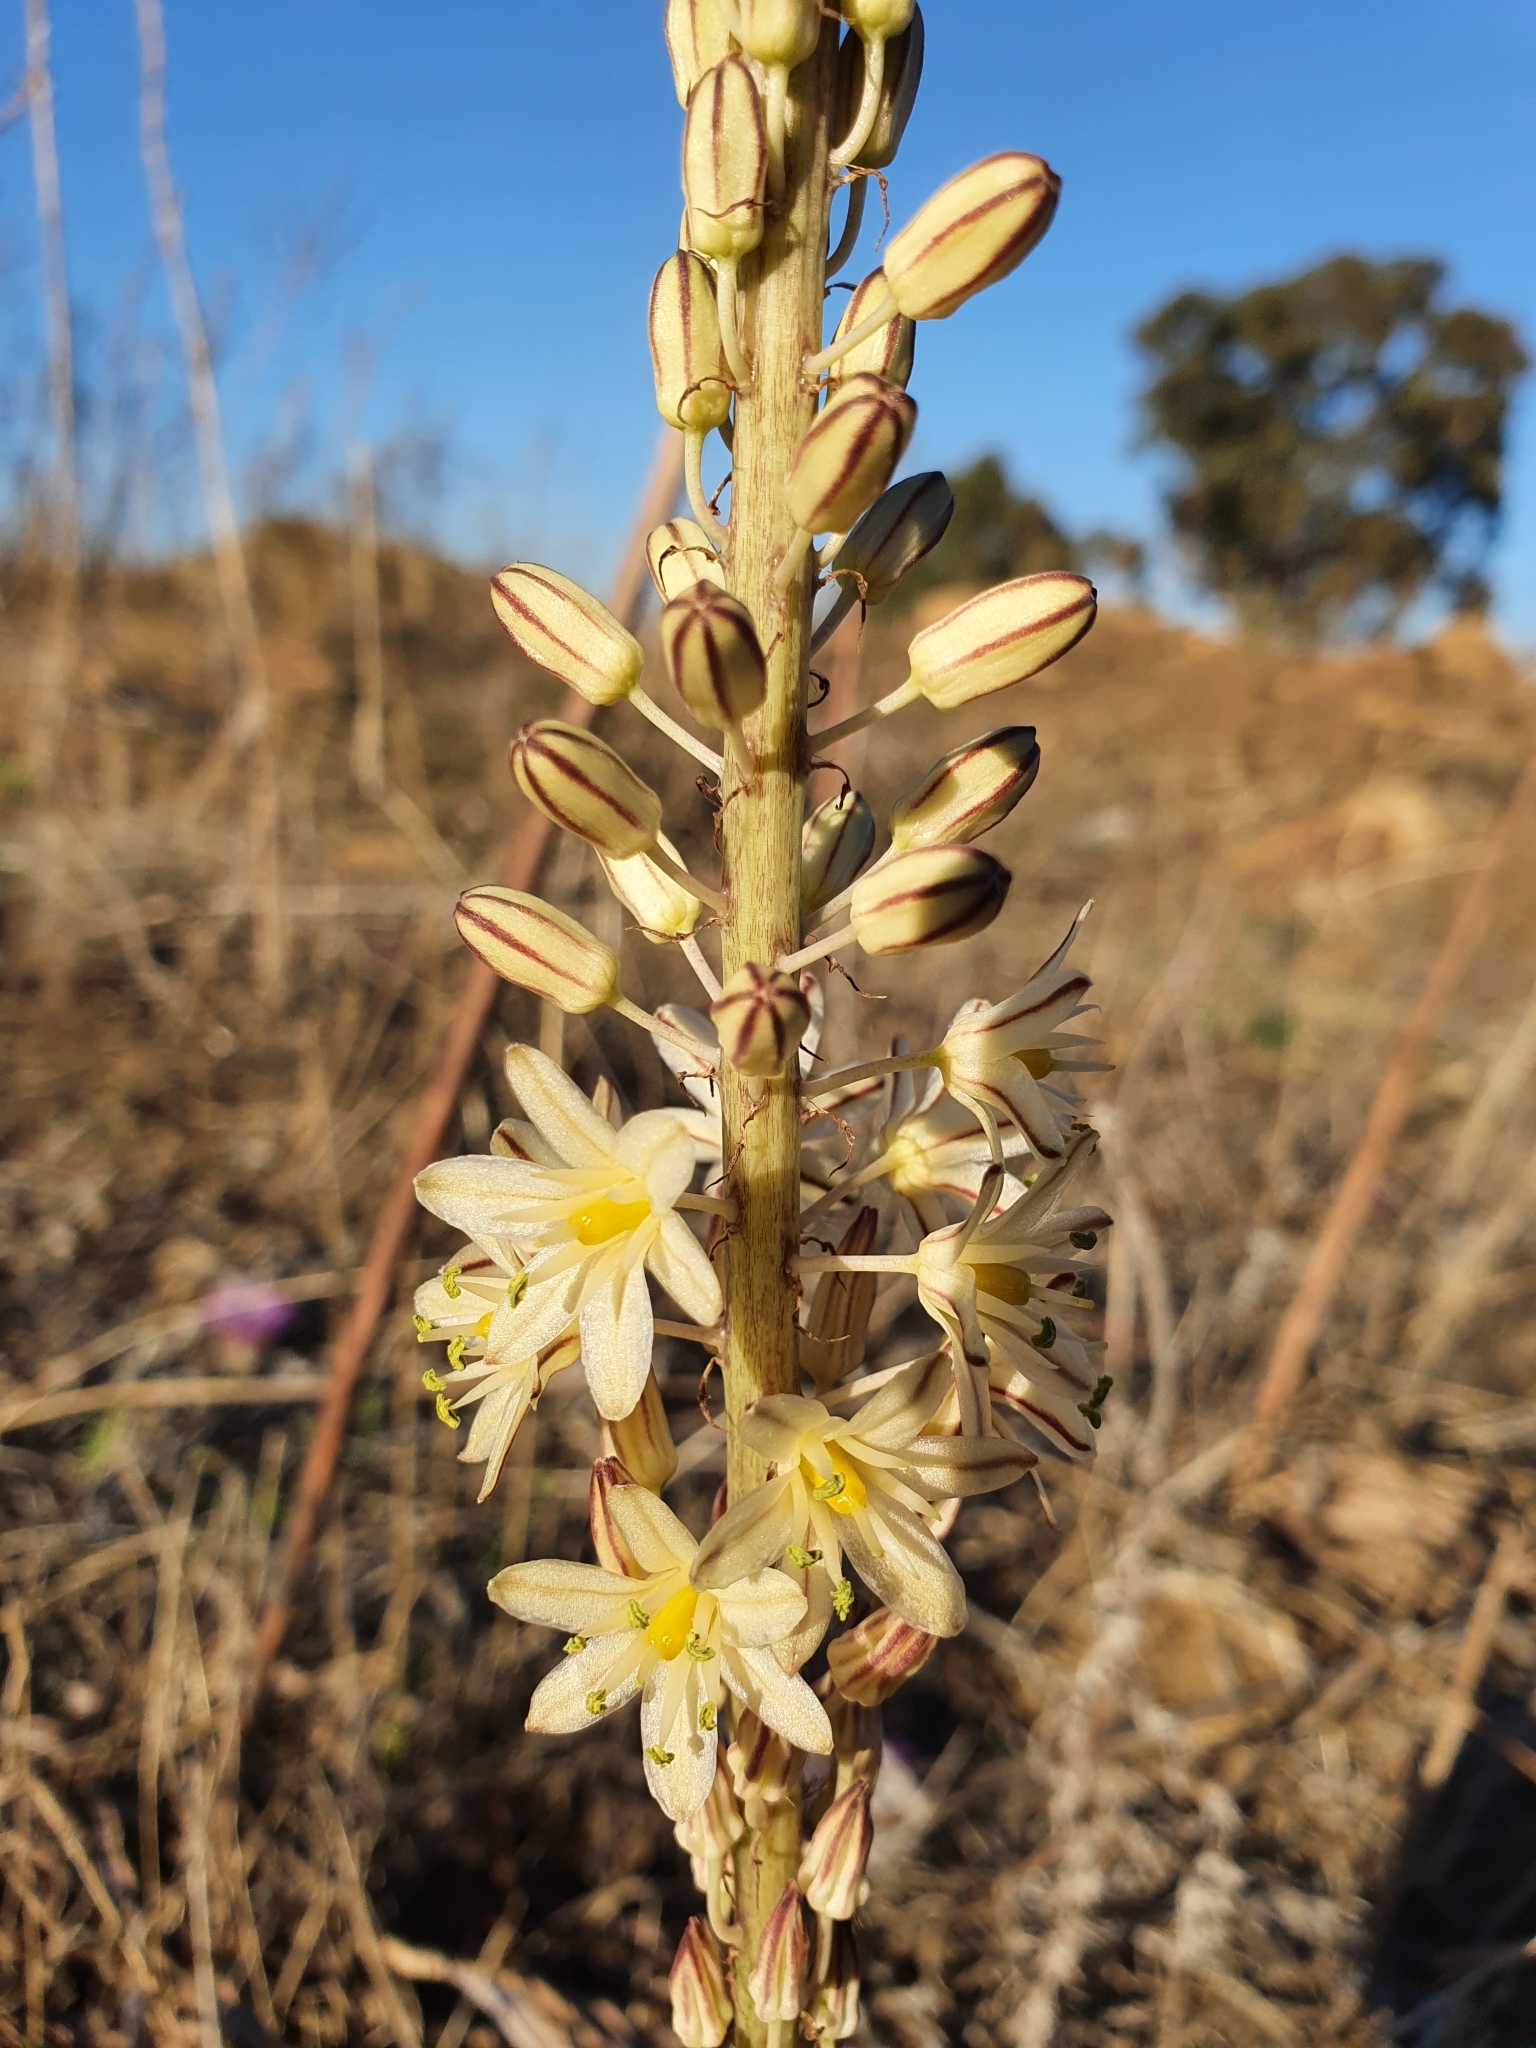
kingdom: Plantae
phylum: Tracheophyta
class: Liliopsida
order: Asparagales
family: Asparagaceae
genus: Drimia
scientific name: Drimia anthericoides
